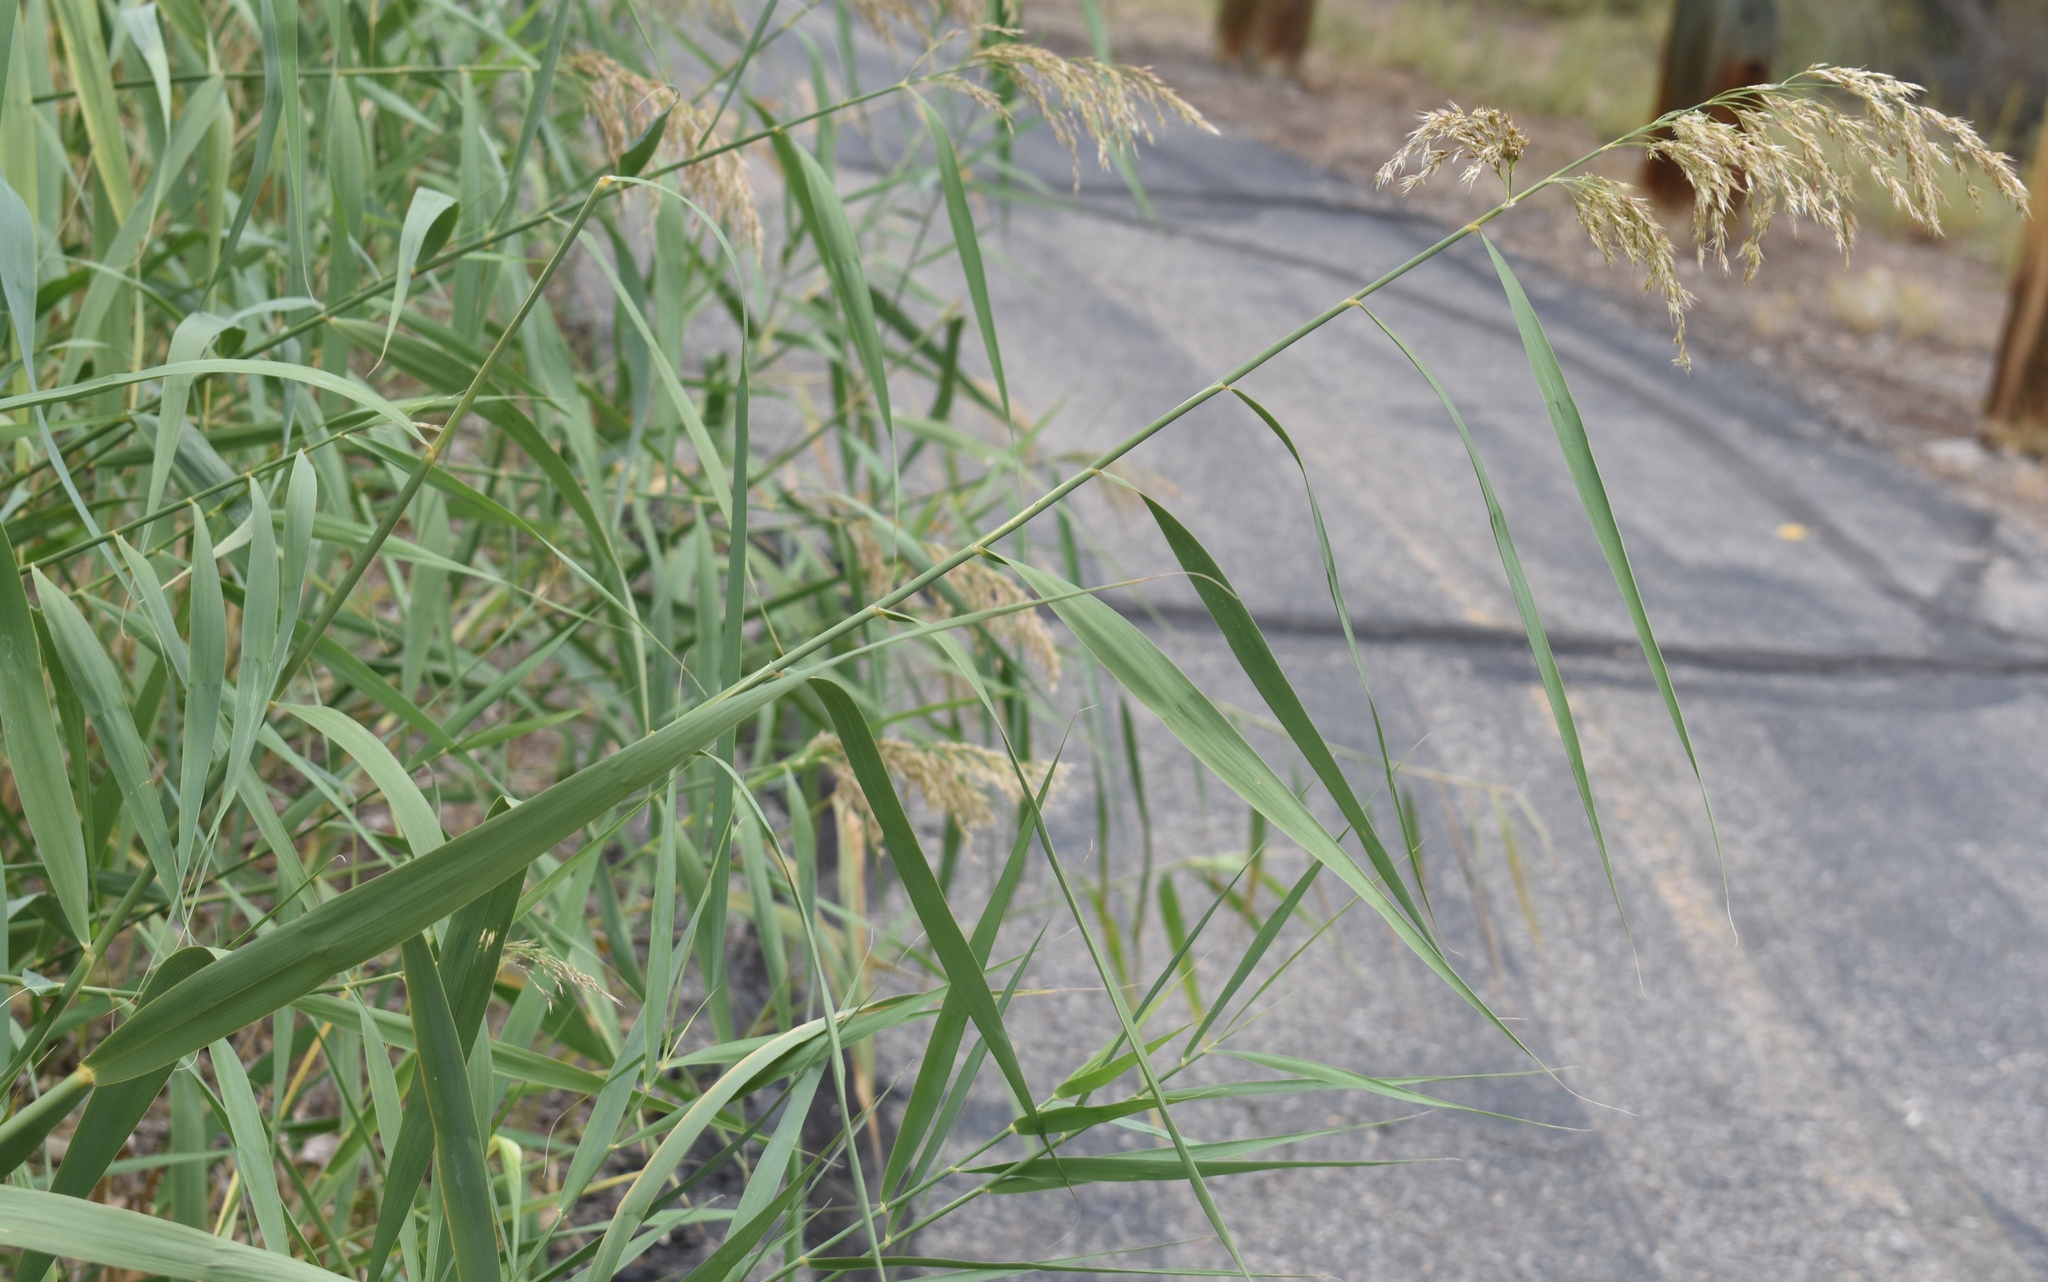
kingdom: Plantae
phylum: Tracheophyta
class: Liliopsida
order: Poales
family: Poaceae
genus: Phragmites
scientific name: Phragmites australis
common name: Common reed
